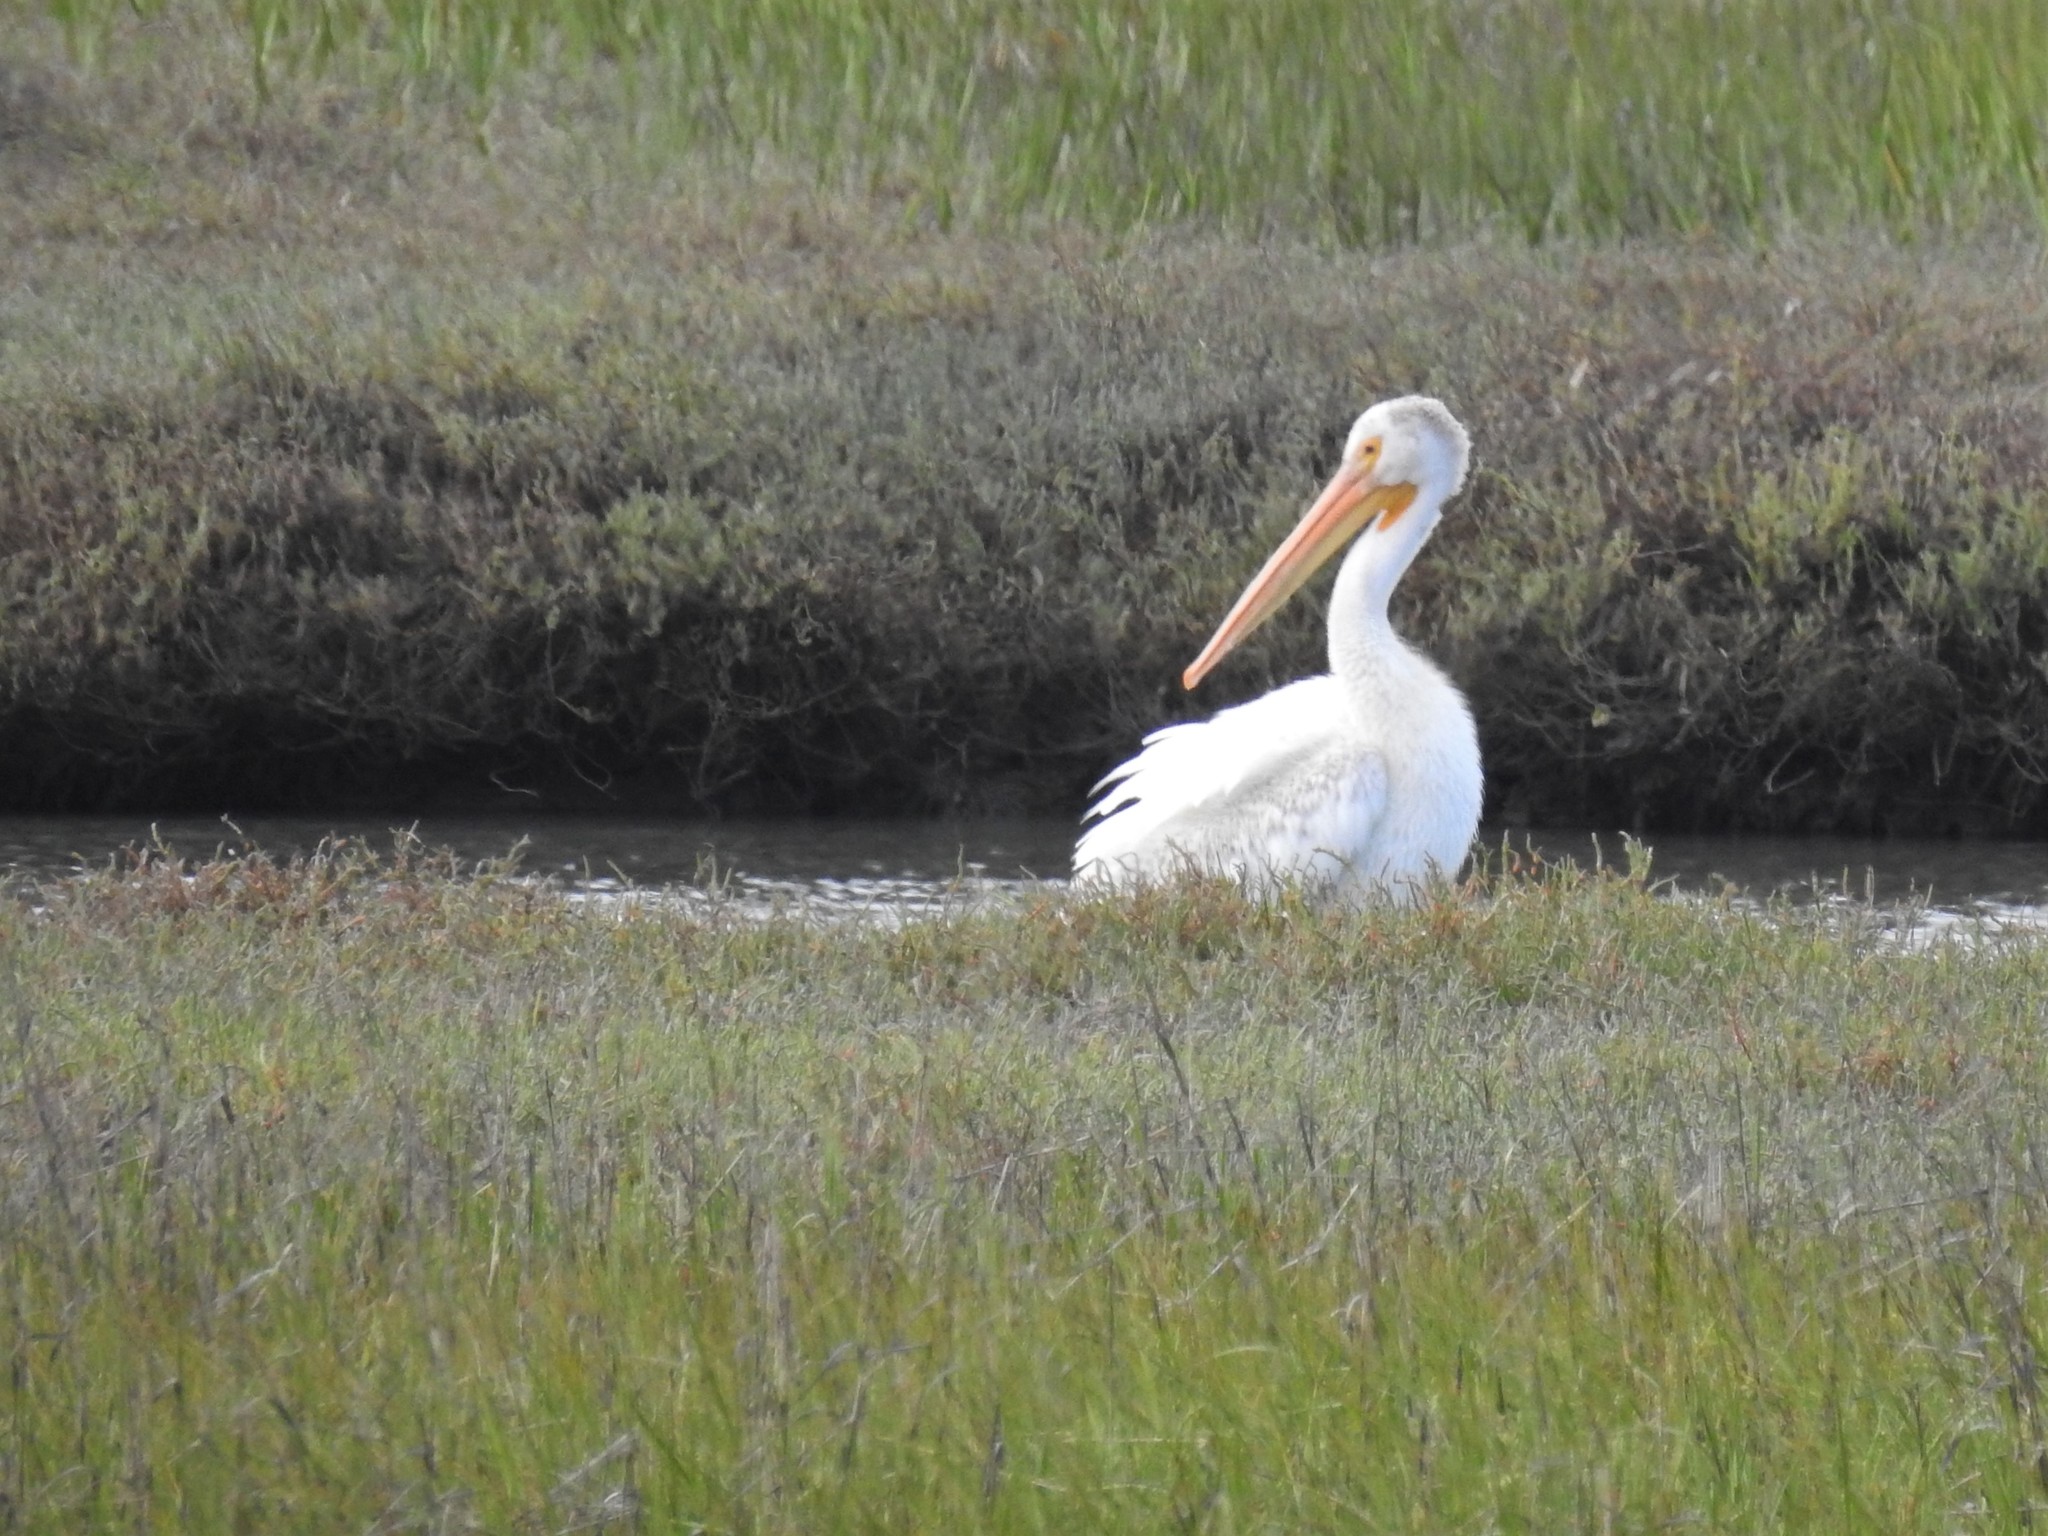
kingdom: Animalia
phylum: Chordata
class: Aves
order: Pelecaniformes
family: Pelecanidae
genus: Pelecanus
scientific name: Pelecanus erythrorhynchos
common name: American white pelican
